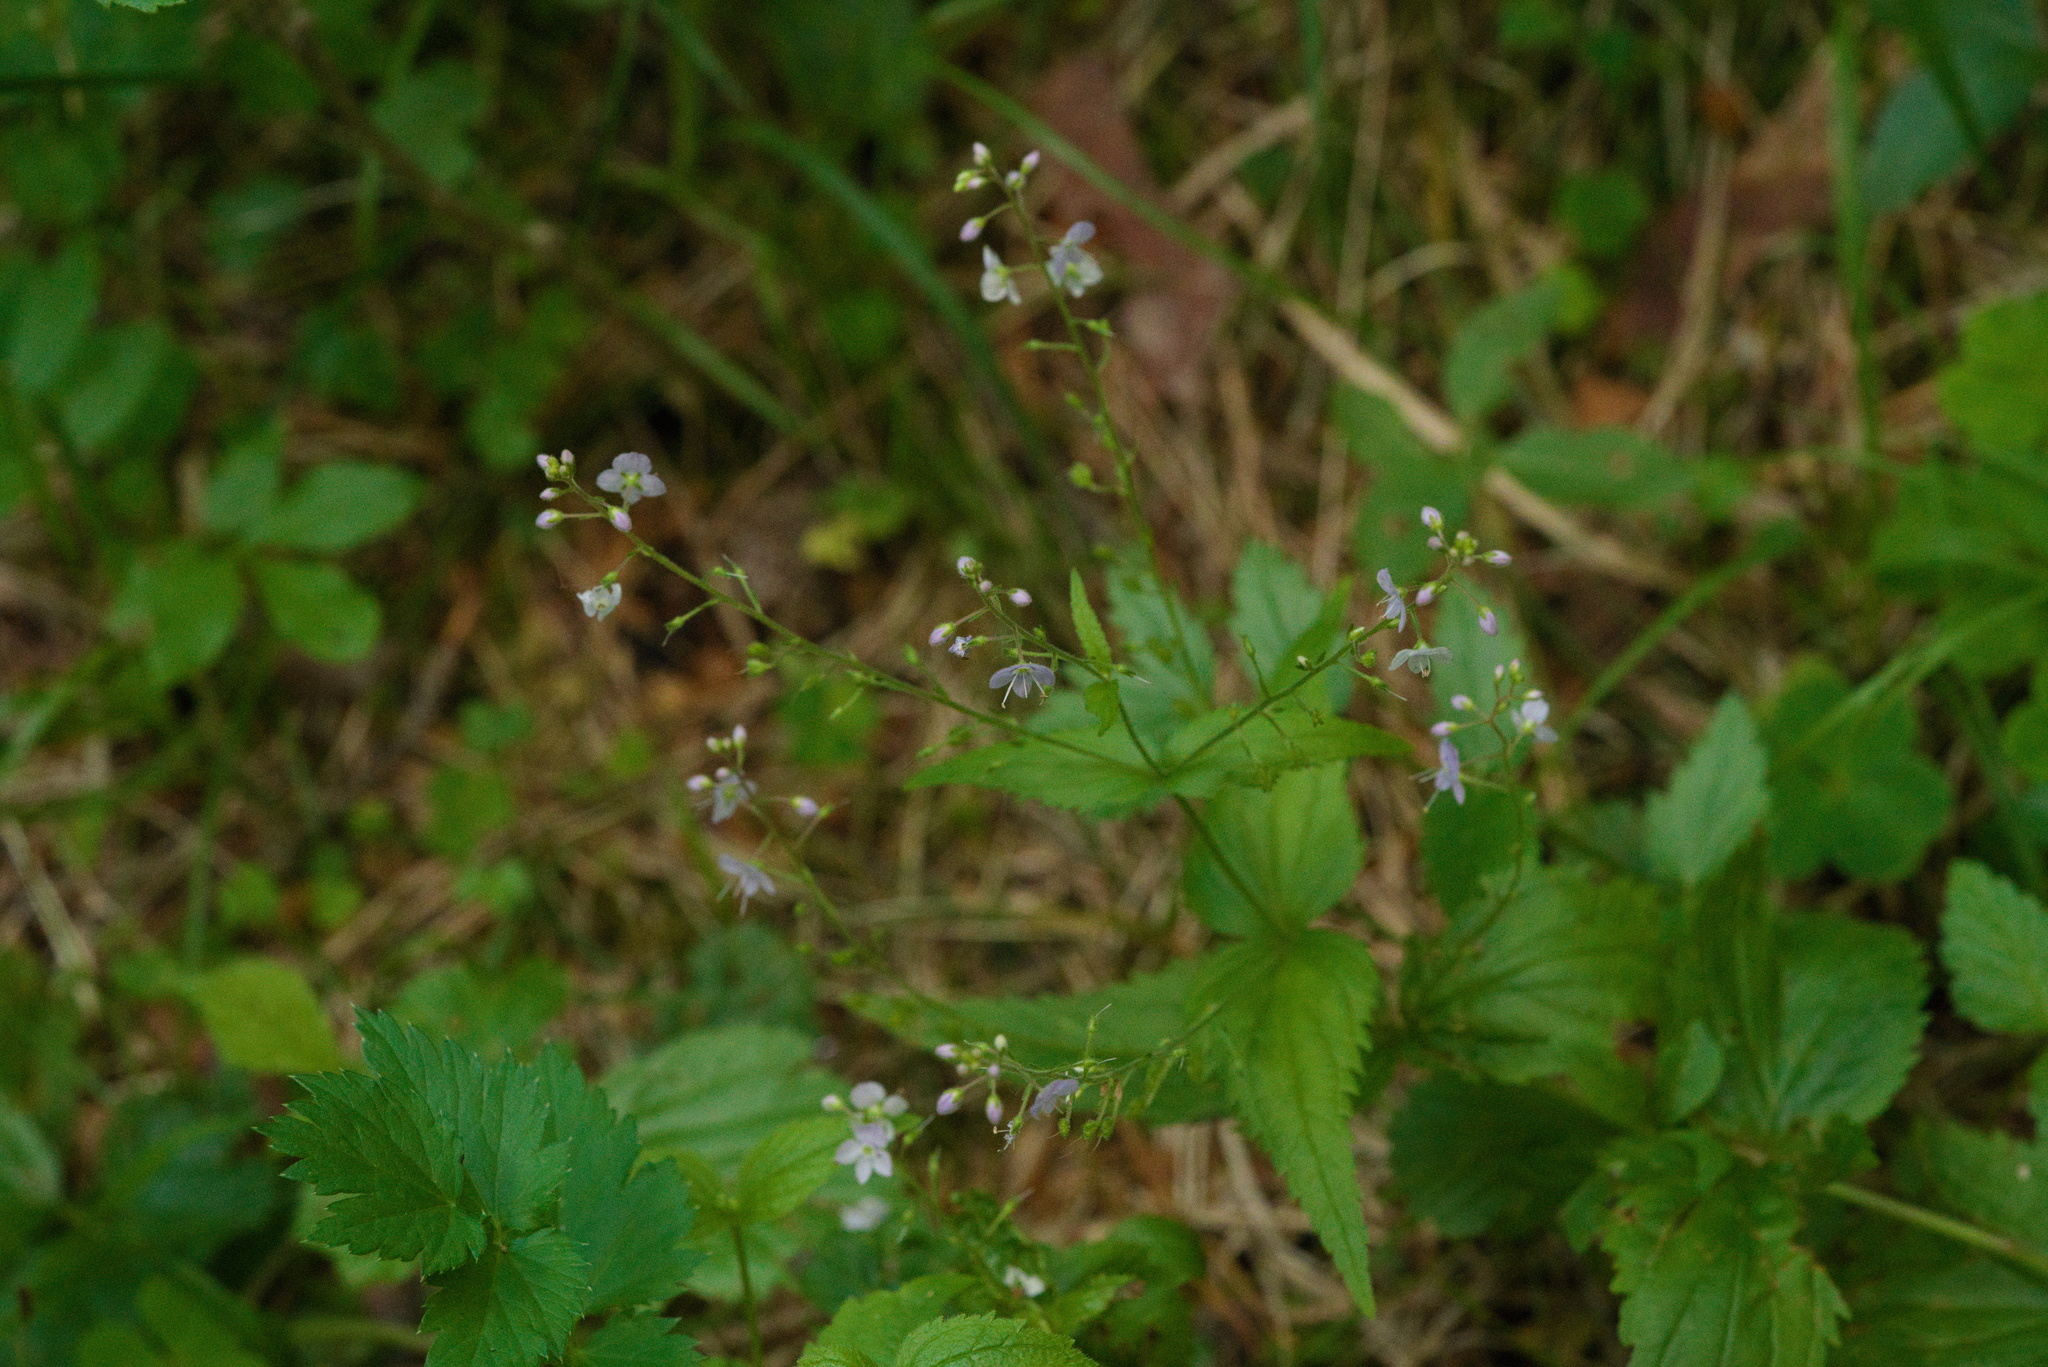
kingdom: Plantae
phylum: Tracheophyta
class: Magnoliopsida
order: Lamiales
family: Plantaginaceae
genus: Veronica
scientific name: Veronica urticifolia
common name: Nettle-leaf speedwell
